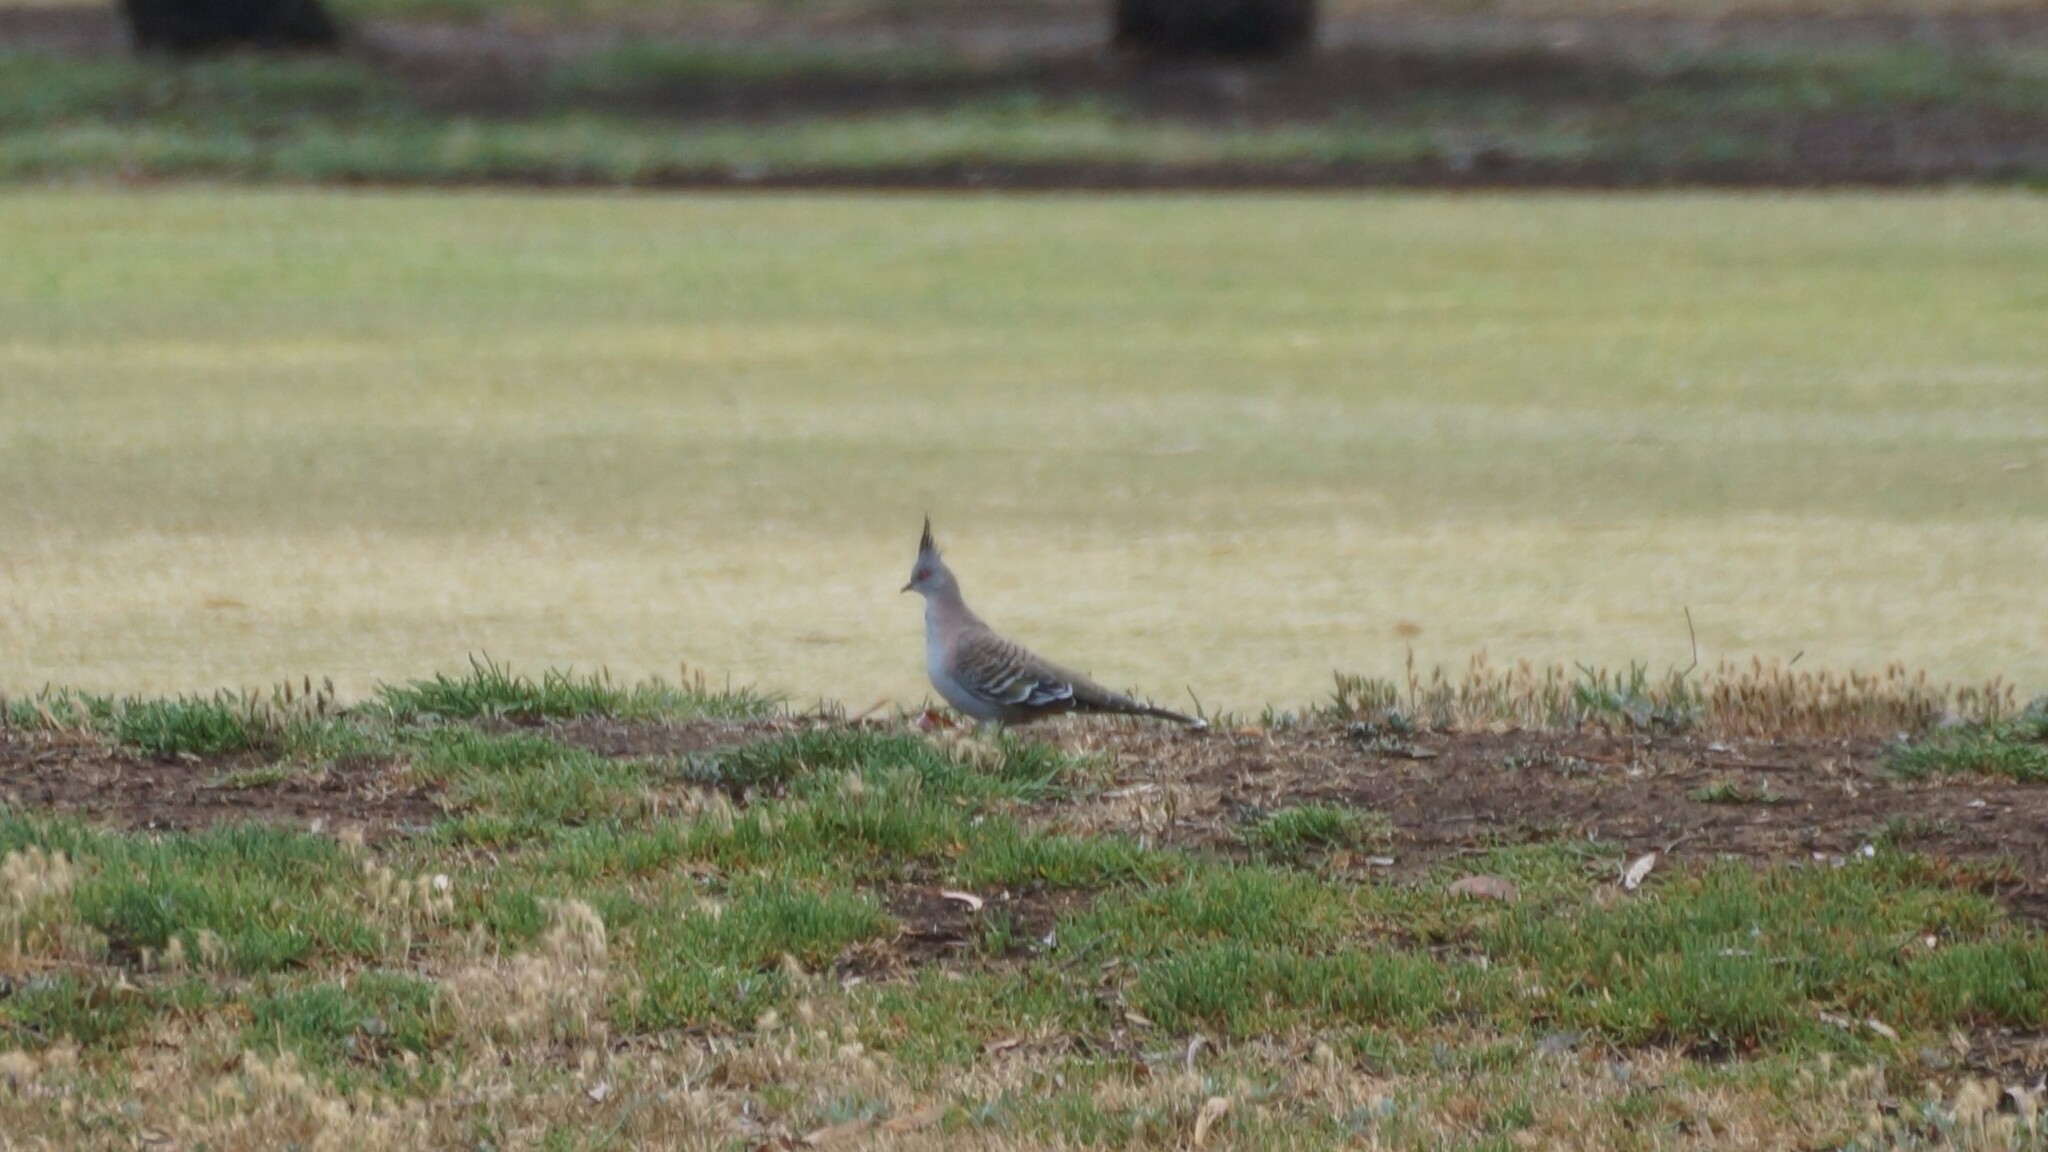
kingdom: Animalia
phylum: Chordata
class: Aves
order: Columbiformes
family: Columbidae
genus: Ocyphaps
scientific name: Ocyphaps lophotes
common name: Crested pigeon
